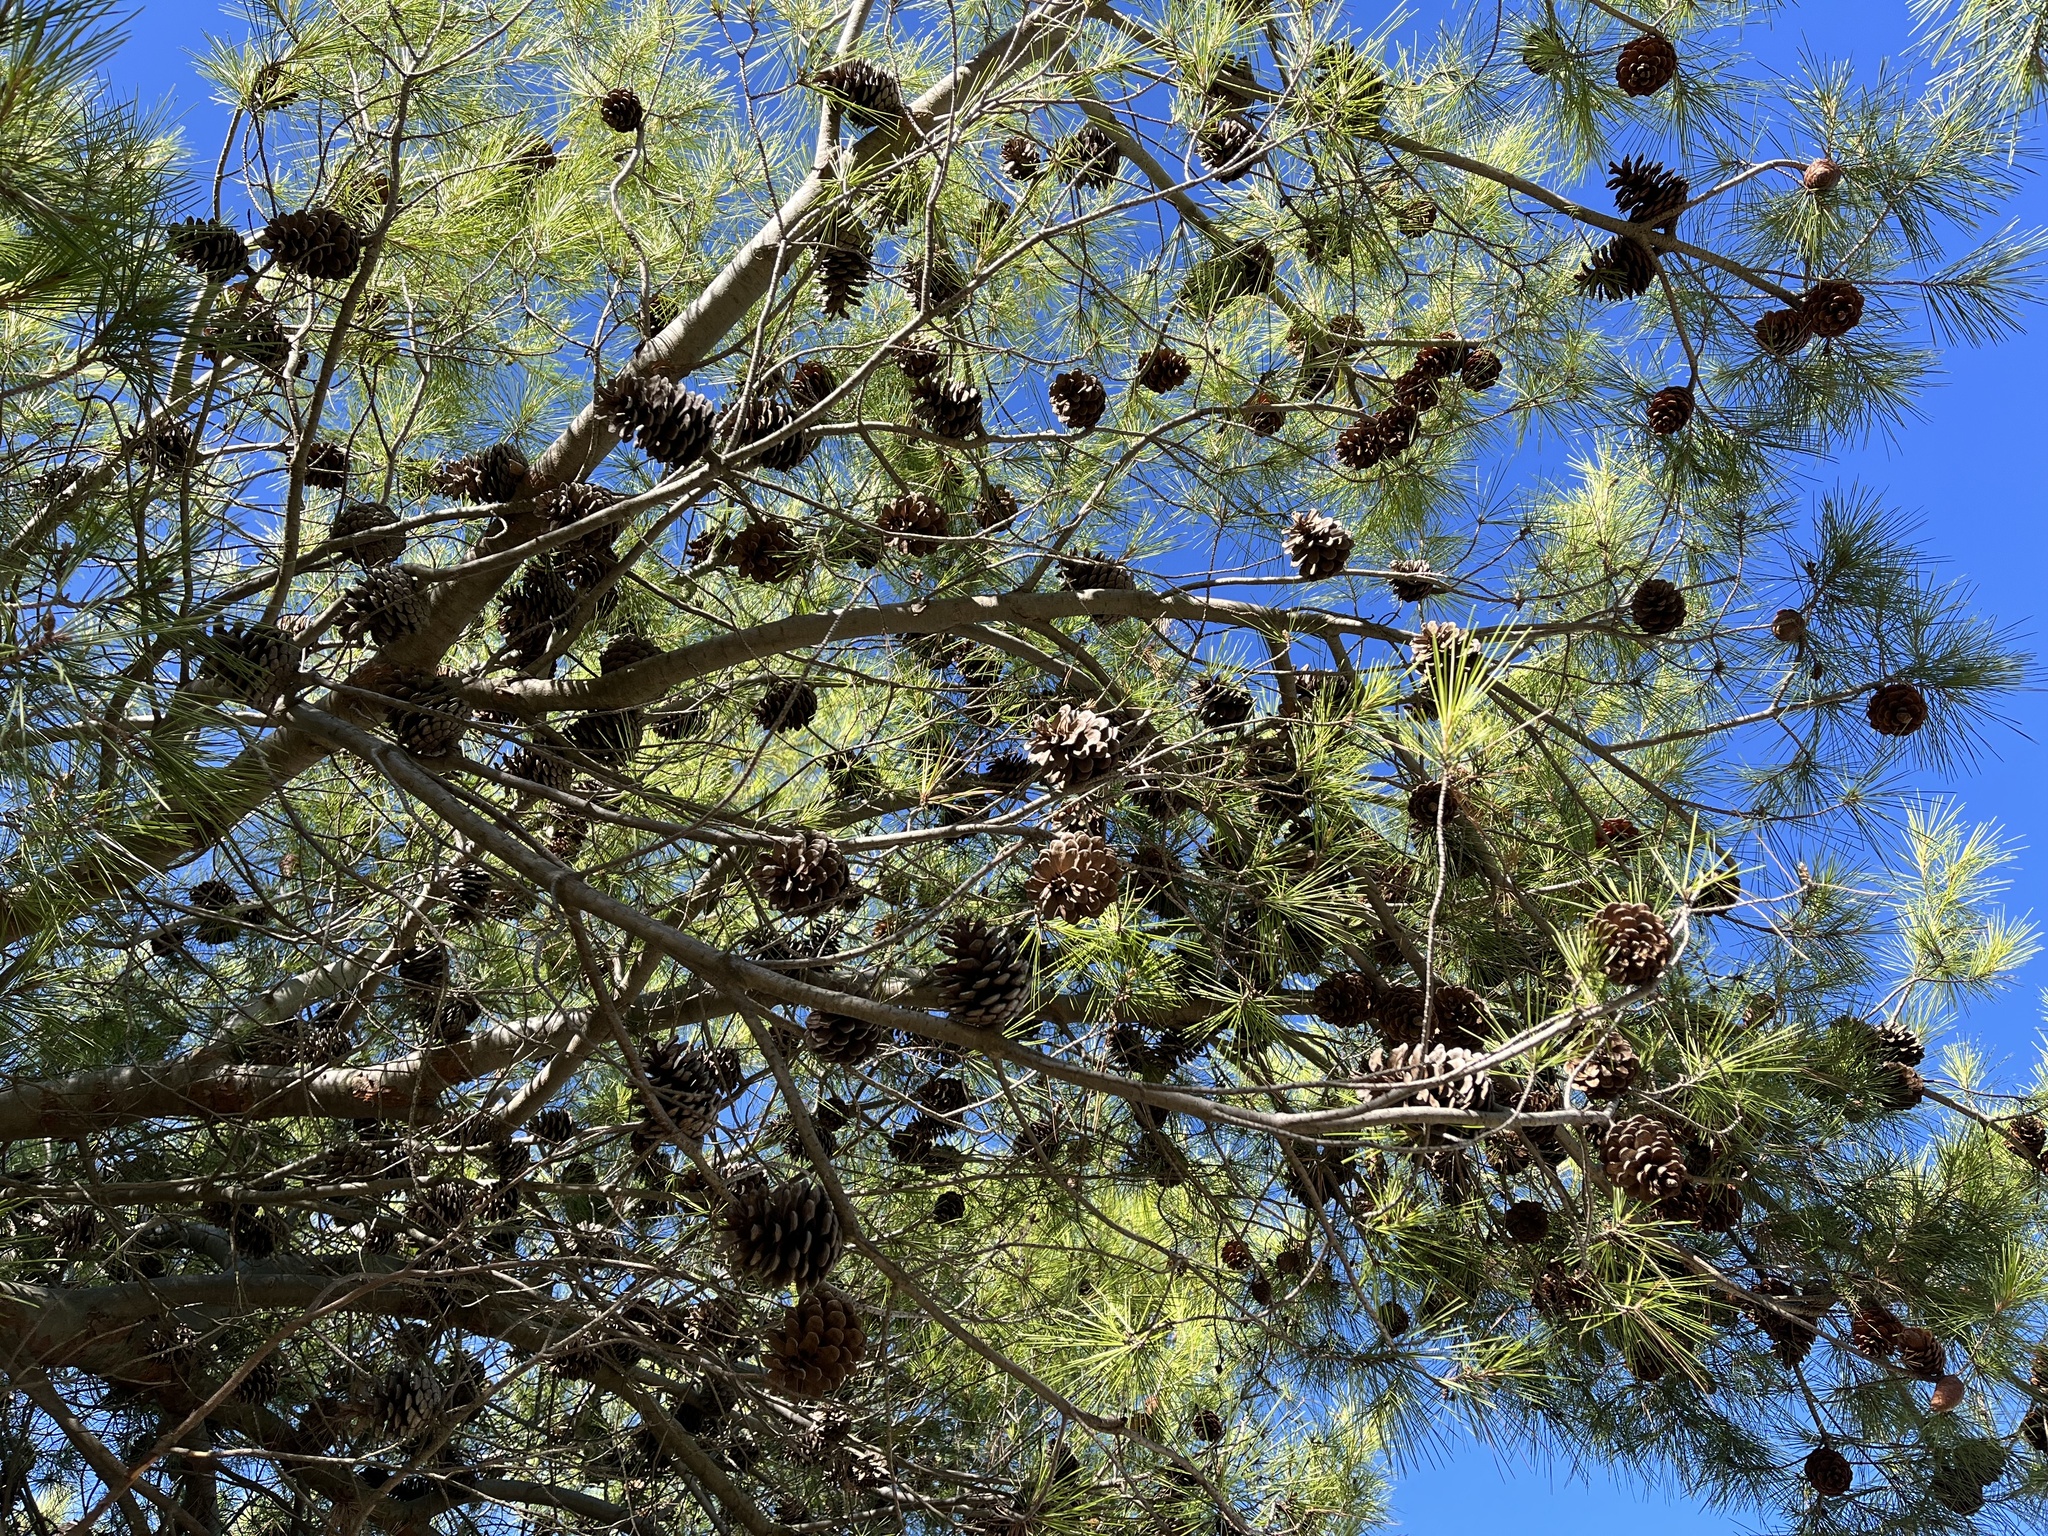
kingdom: Plantae
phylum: Tracheophyta
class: Pinopsida
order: Pinales
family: Pinaceae
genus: Pinus
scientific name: Pinus halepensis
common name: Aleppo pine
